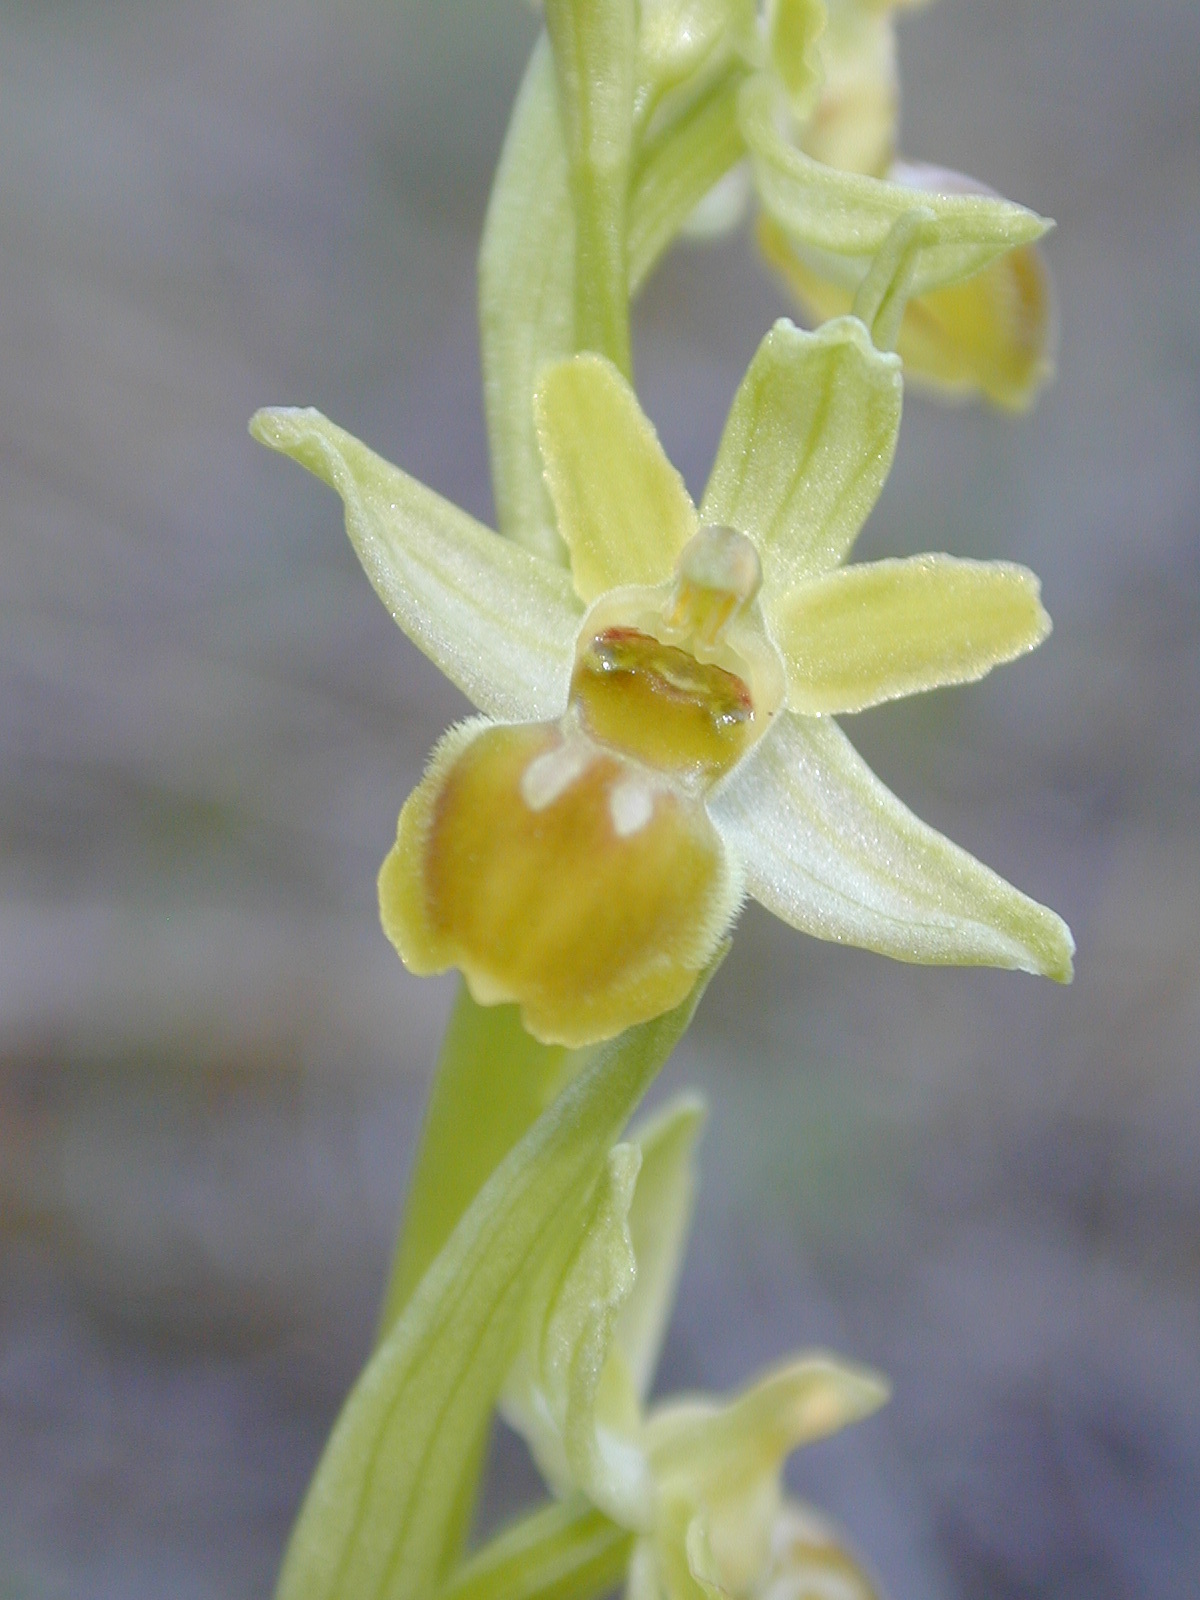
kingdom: Plantae
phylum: Tracheophyta
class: Liliopsida
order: Asparagales
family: Orchidaceae
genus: Ophrys
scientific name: Ophrys araneola
